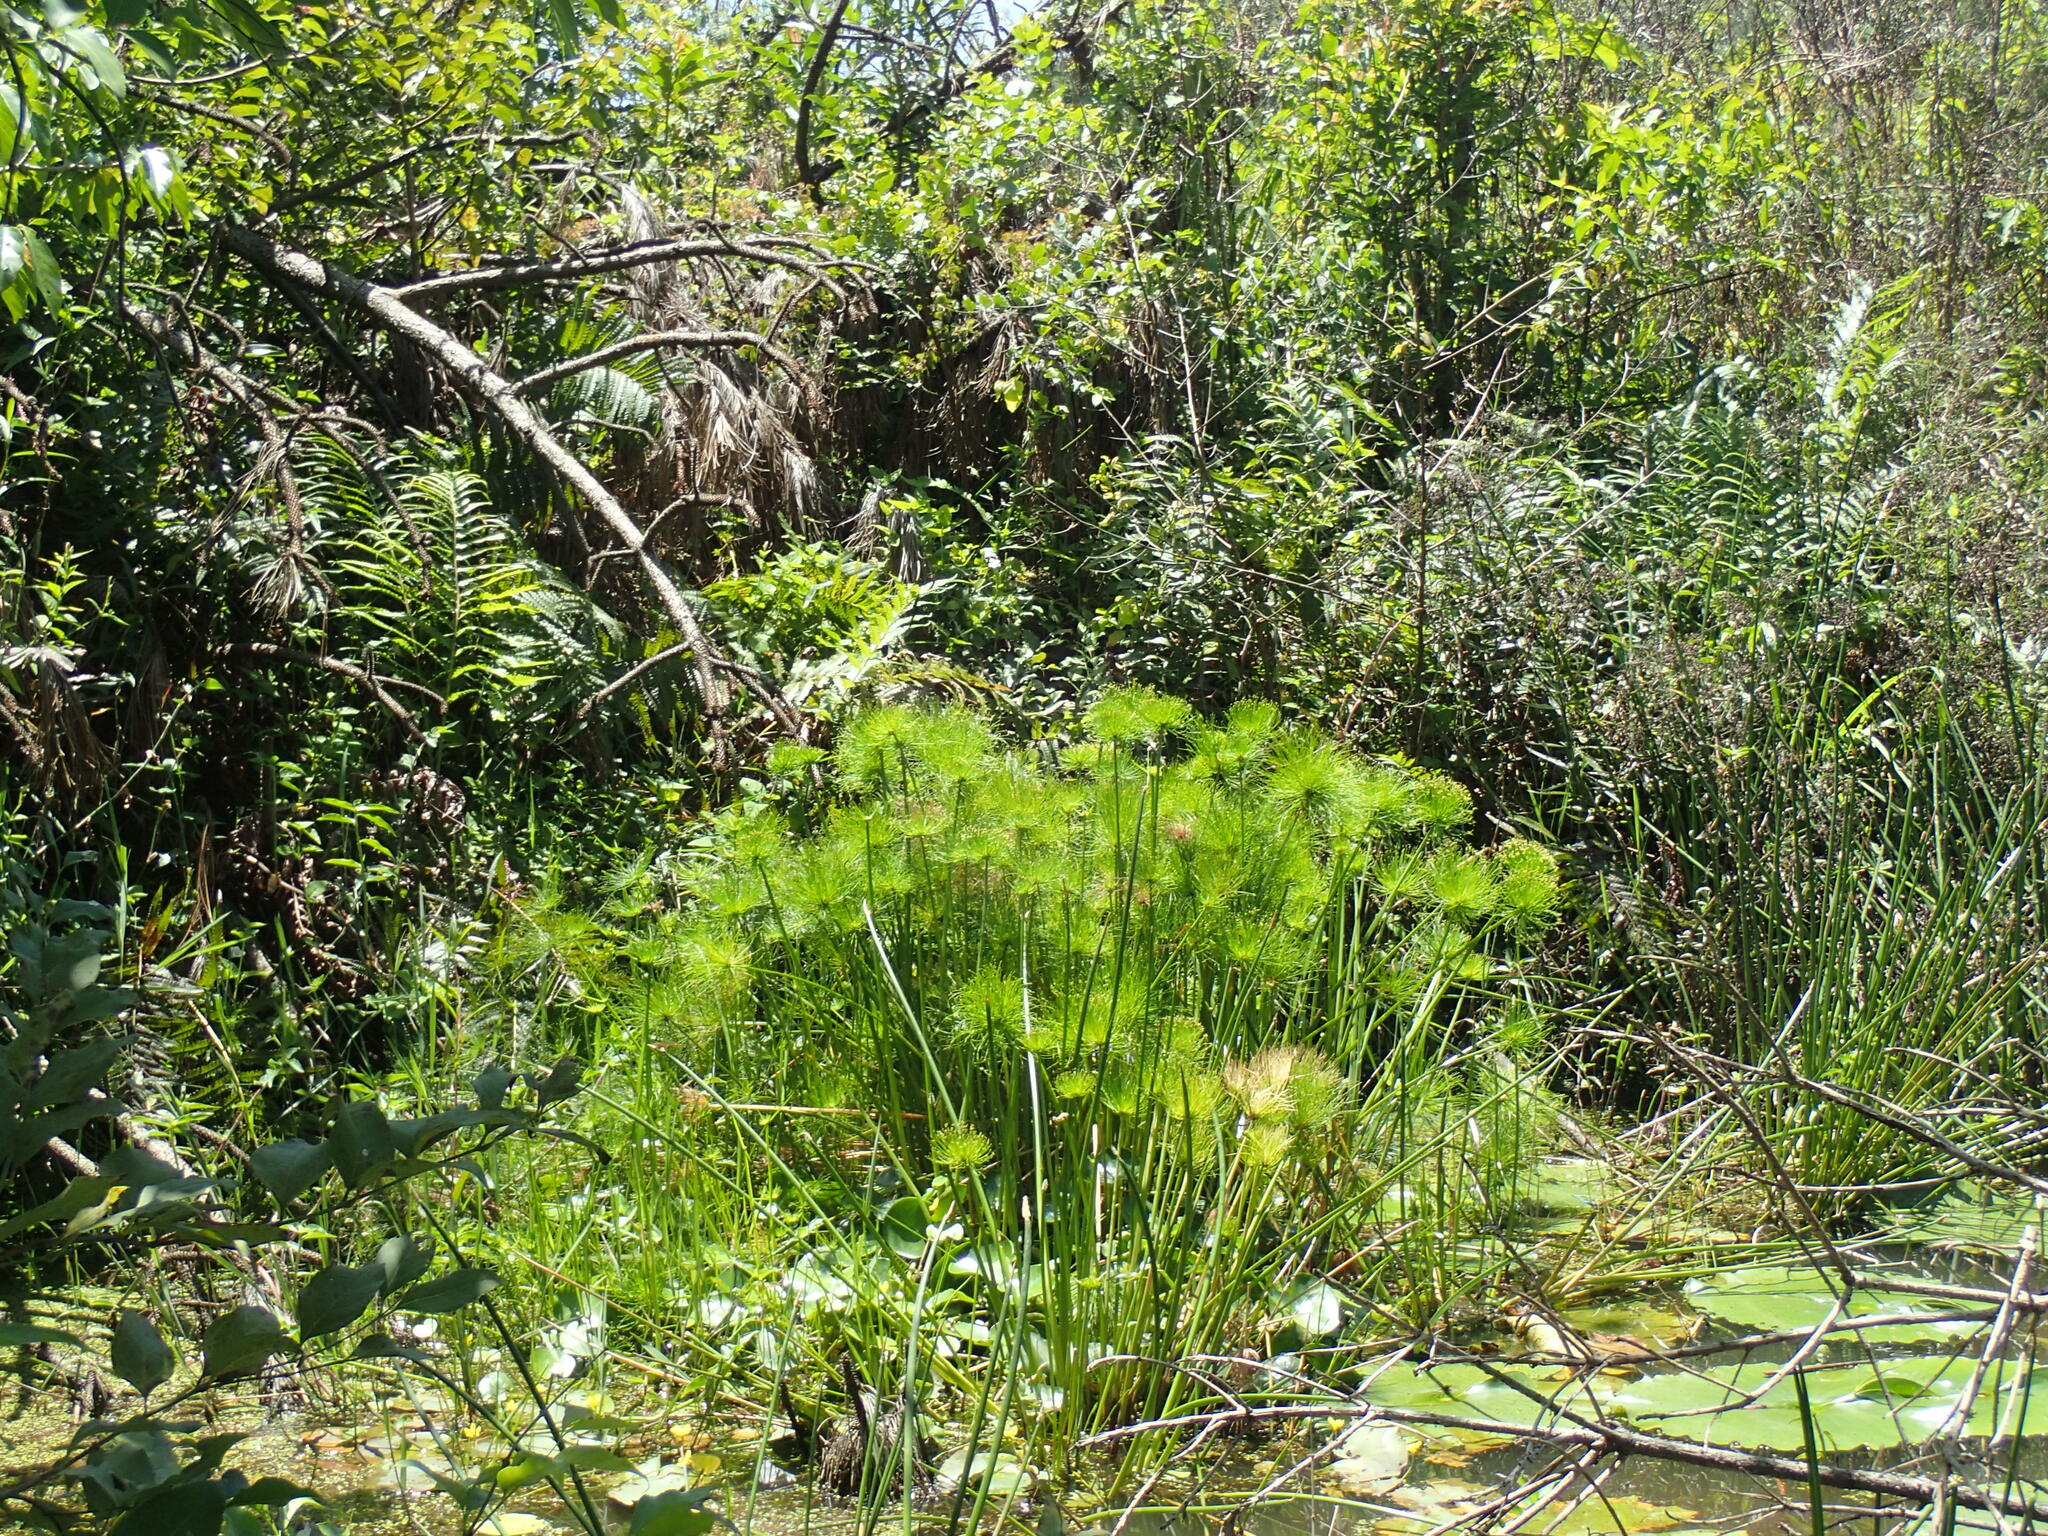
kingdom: Plantae
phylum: Tracheophyta
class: Liliopsida
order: Poales
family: Cyperaceae
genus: Cyperus
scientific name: Cyperus prolifer
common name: Miniature flatsedge
